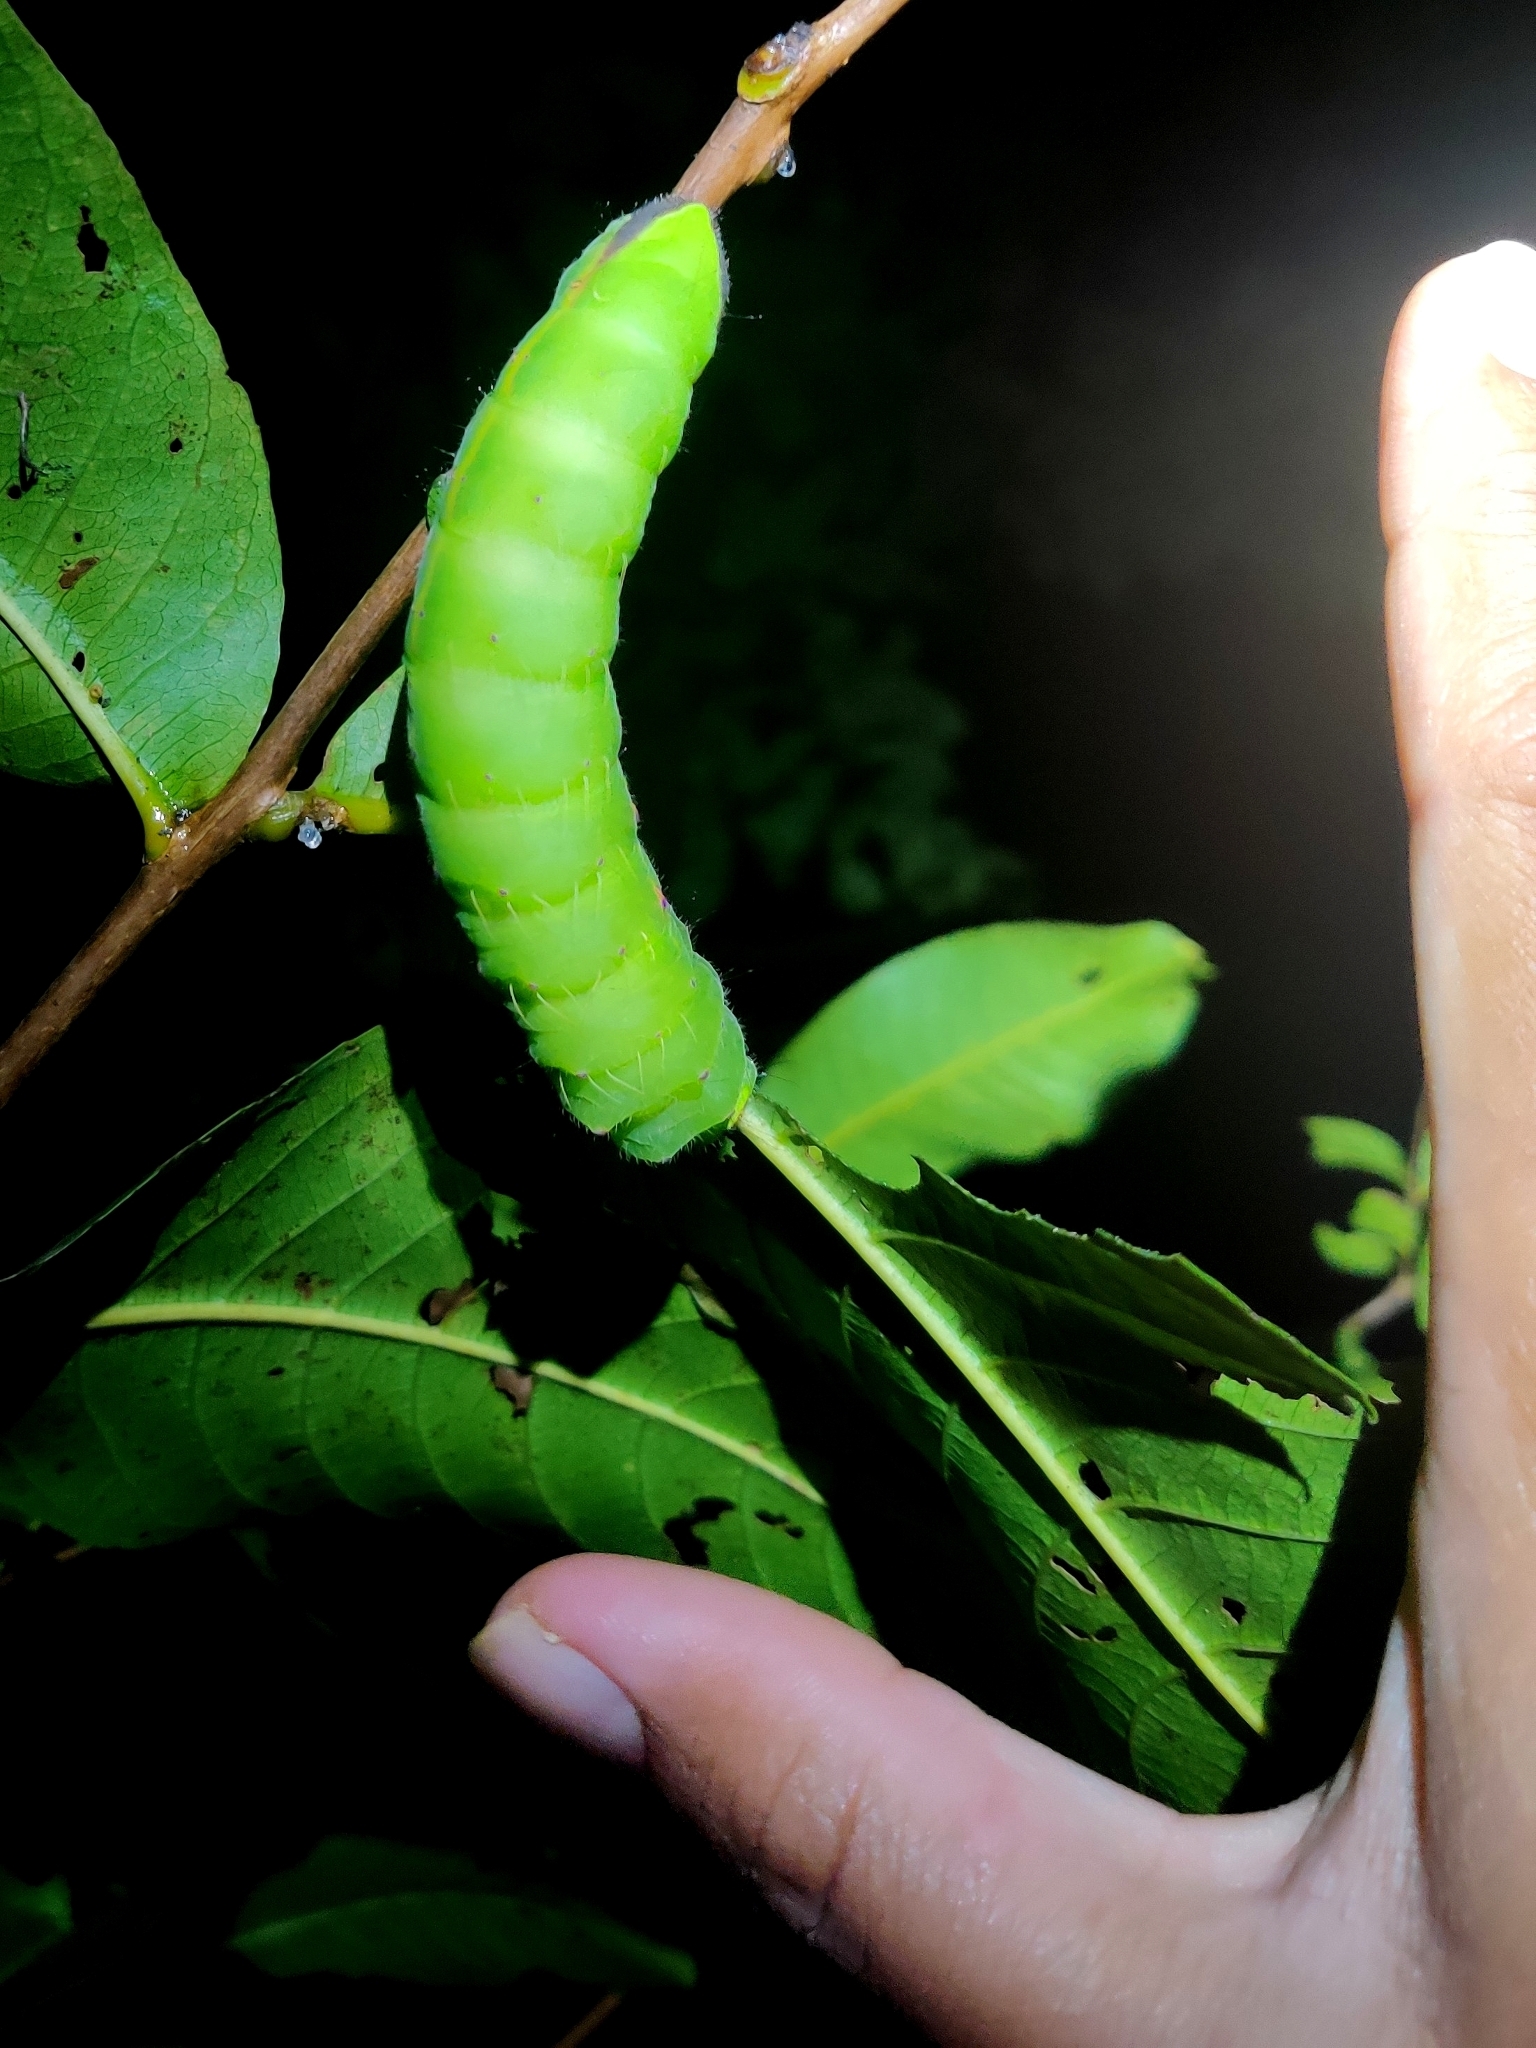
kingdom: Animalia
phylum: Arthropoda
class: Insecta
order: Lepidoptera
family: Saturniidae
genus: Antheraea
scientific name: Antheraea paphia
